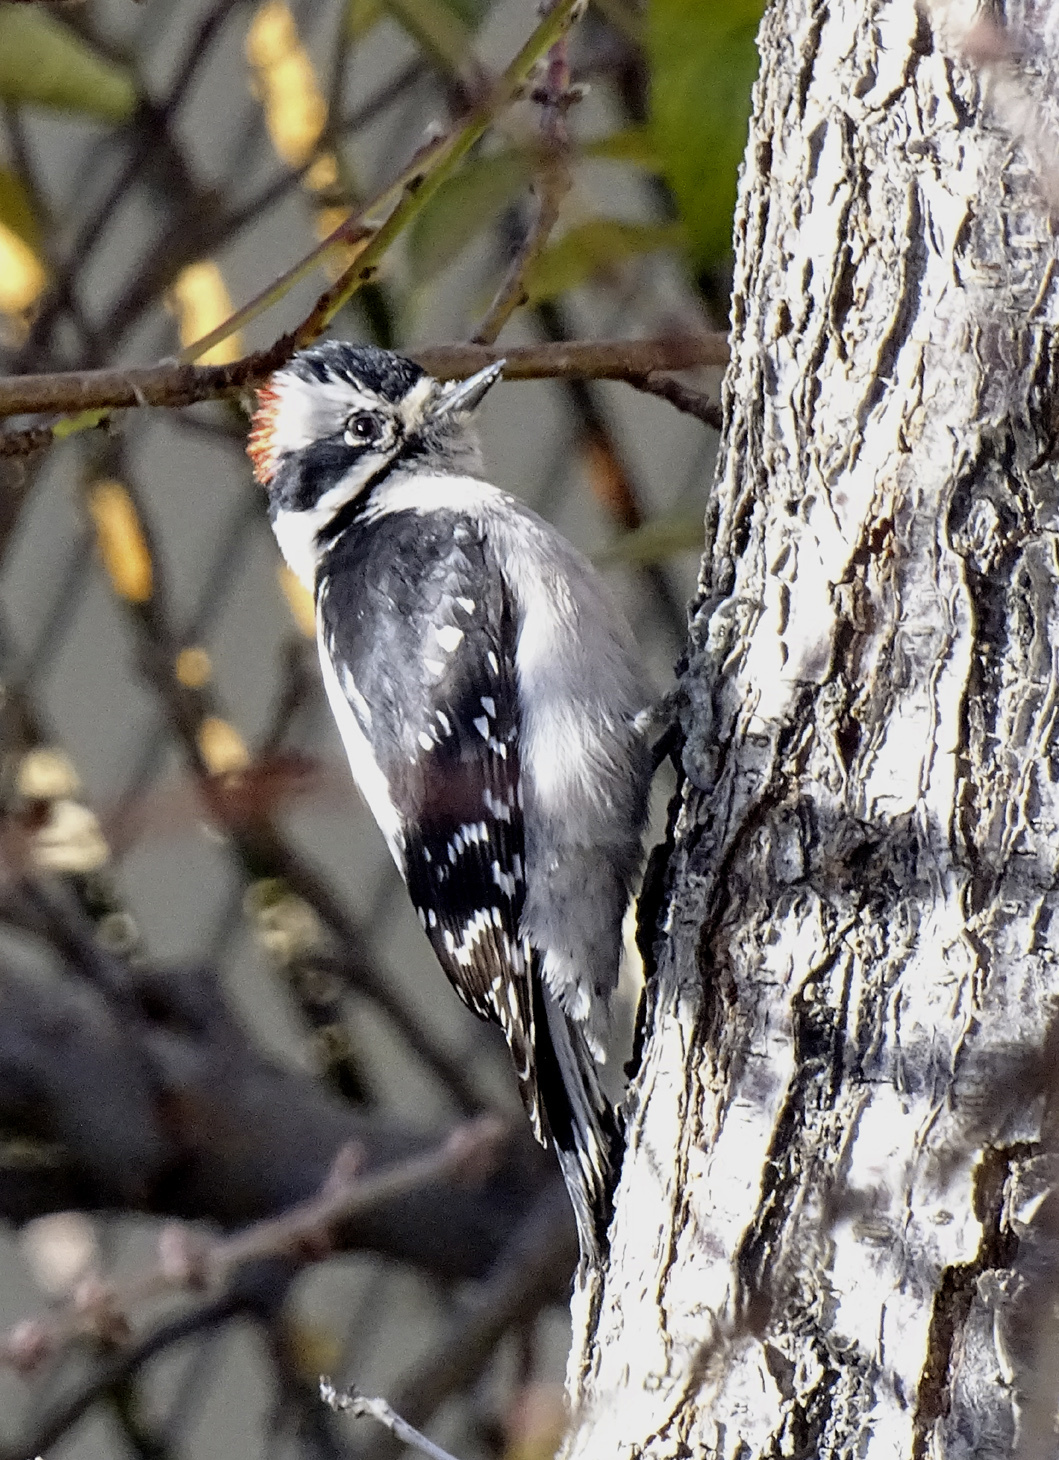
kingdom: Animalia
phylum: Chordata
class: Aves
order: Piciformes
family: Picidae
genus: Dryobates
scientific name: Dryobates pubescens
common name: Downy woodpecker
